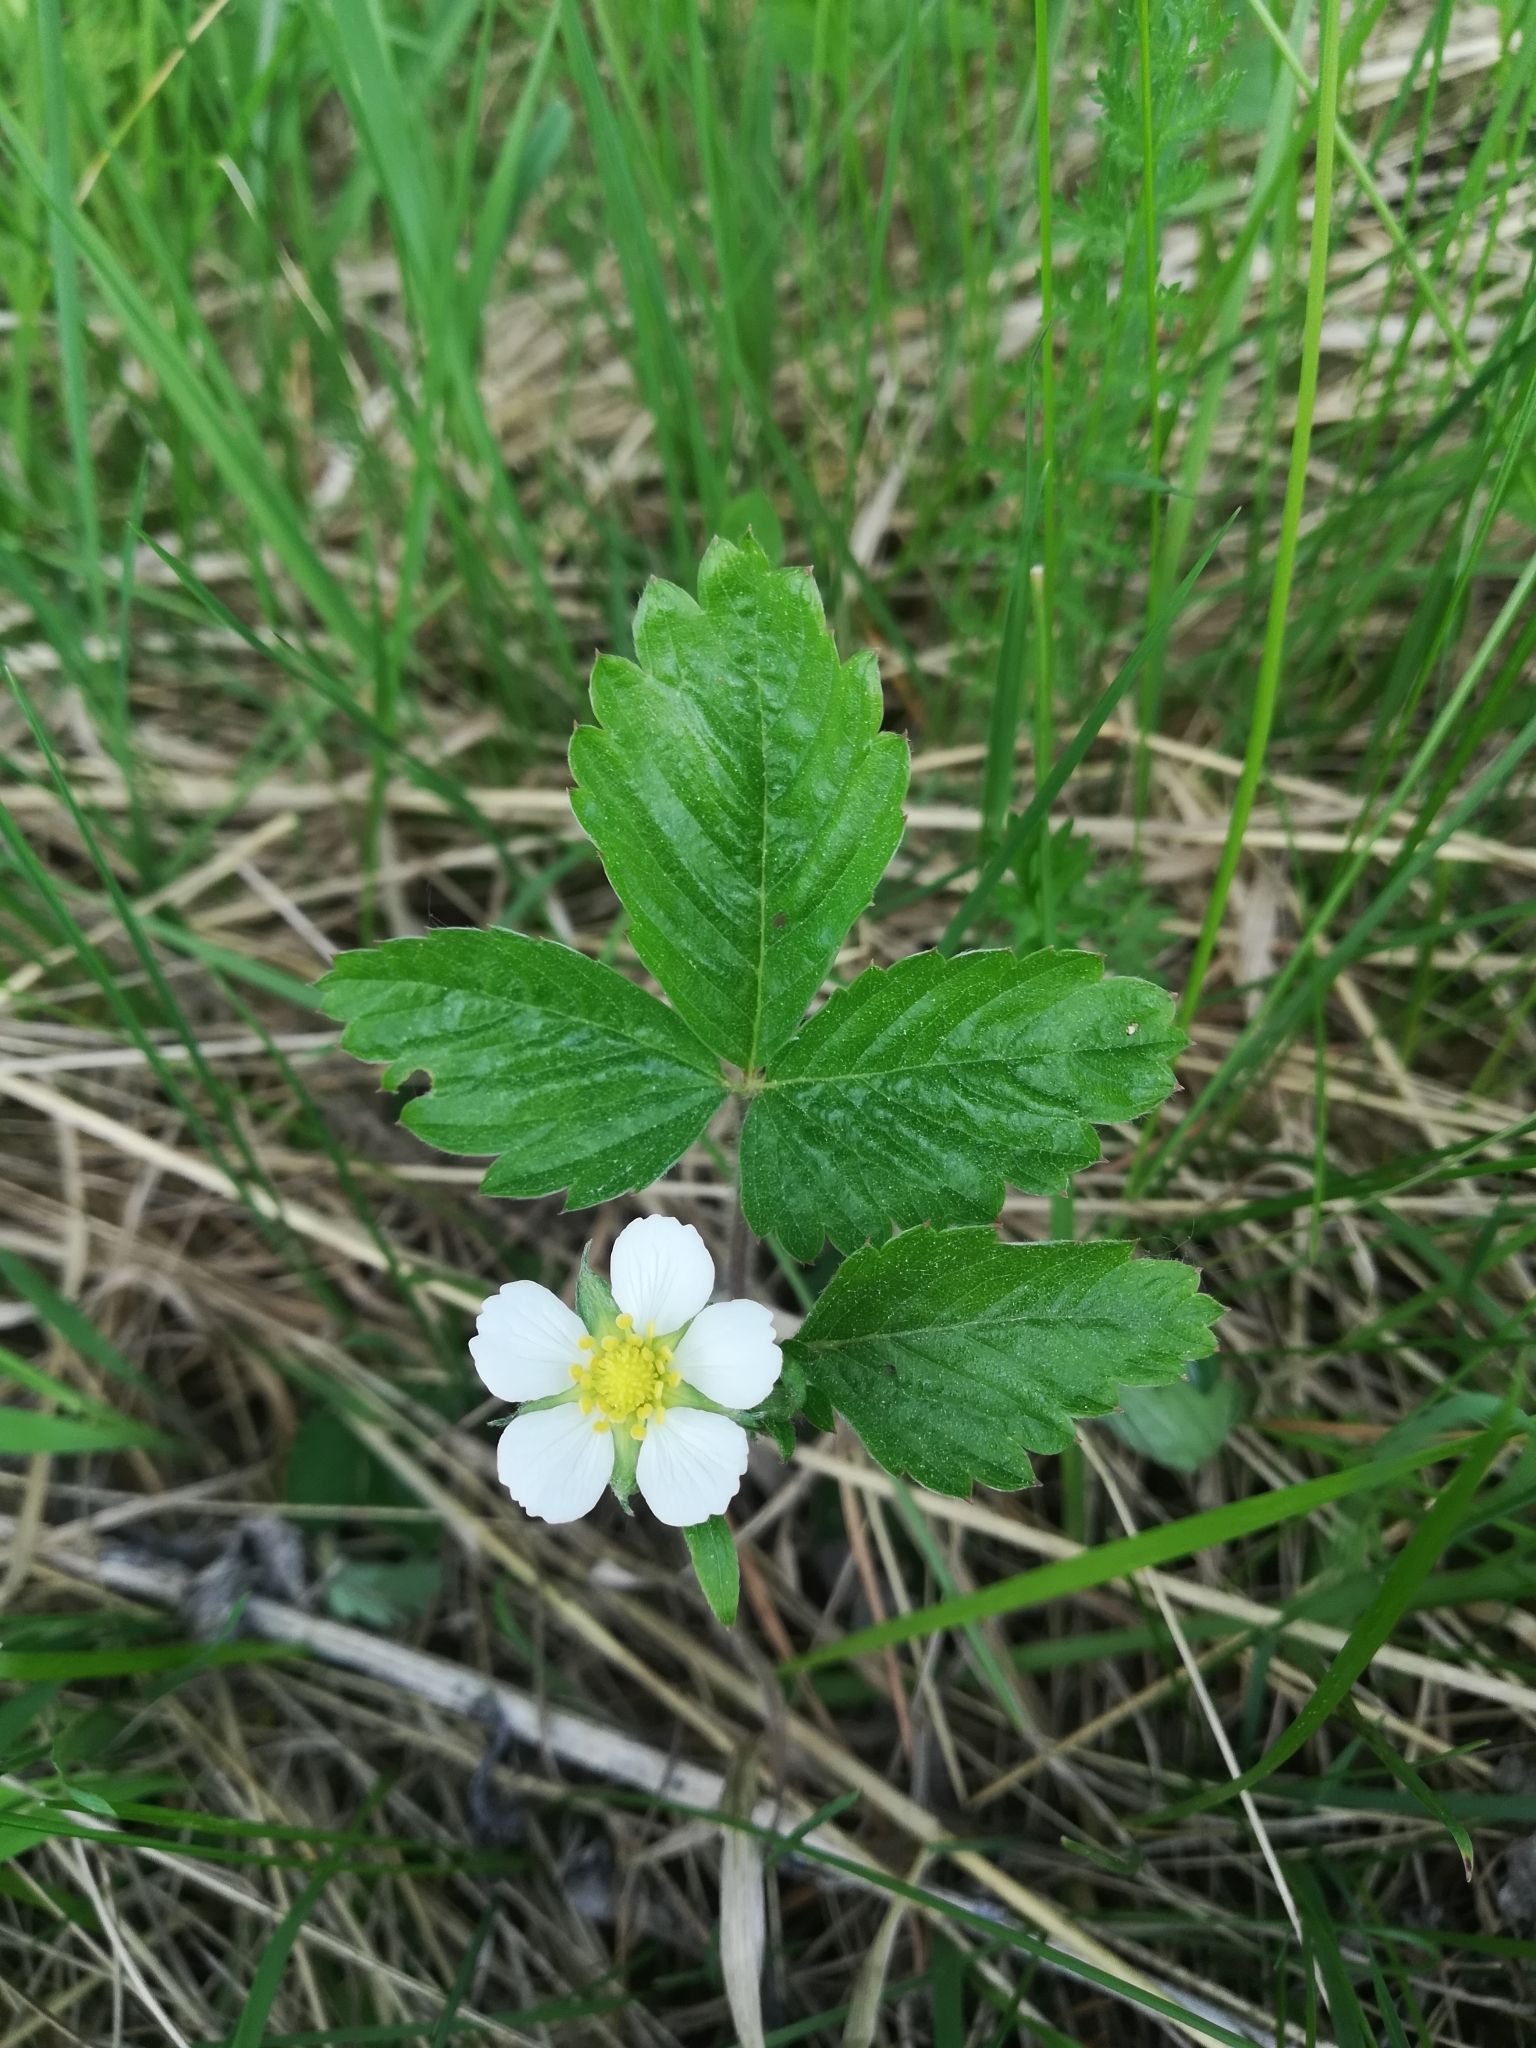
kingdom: Plantae
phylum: Tracheophyta
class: Magnoliopsida
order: Rosales
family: Rosaceae
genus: Fragaria
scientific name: Fragaria vesca
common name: Wild strawberry
